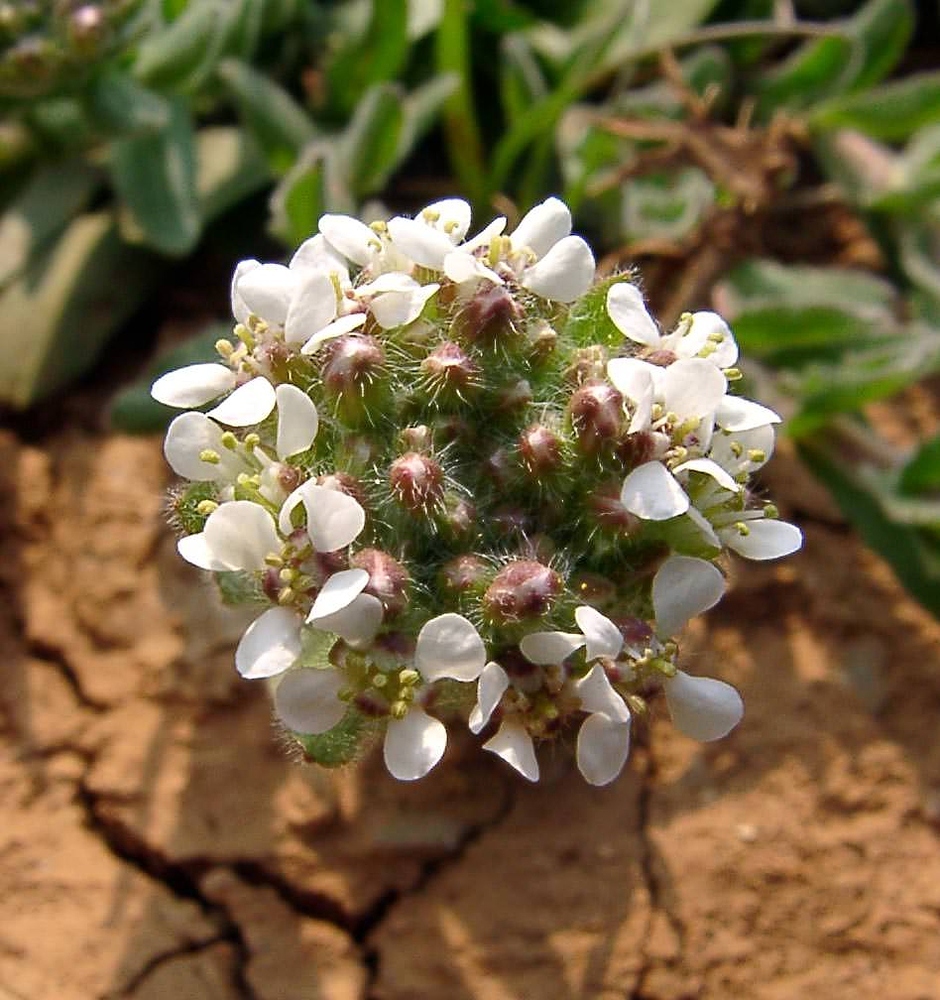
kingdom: Plantae
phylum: Tracheophyta
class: Magnoliopsida
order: Brassicales
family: Brassicaceae
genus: Lepidium
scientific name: Lepidium campestre
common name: Field pepperwort
